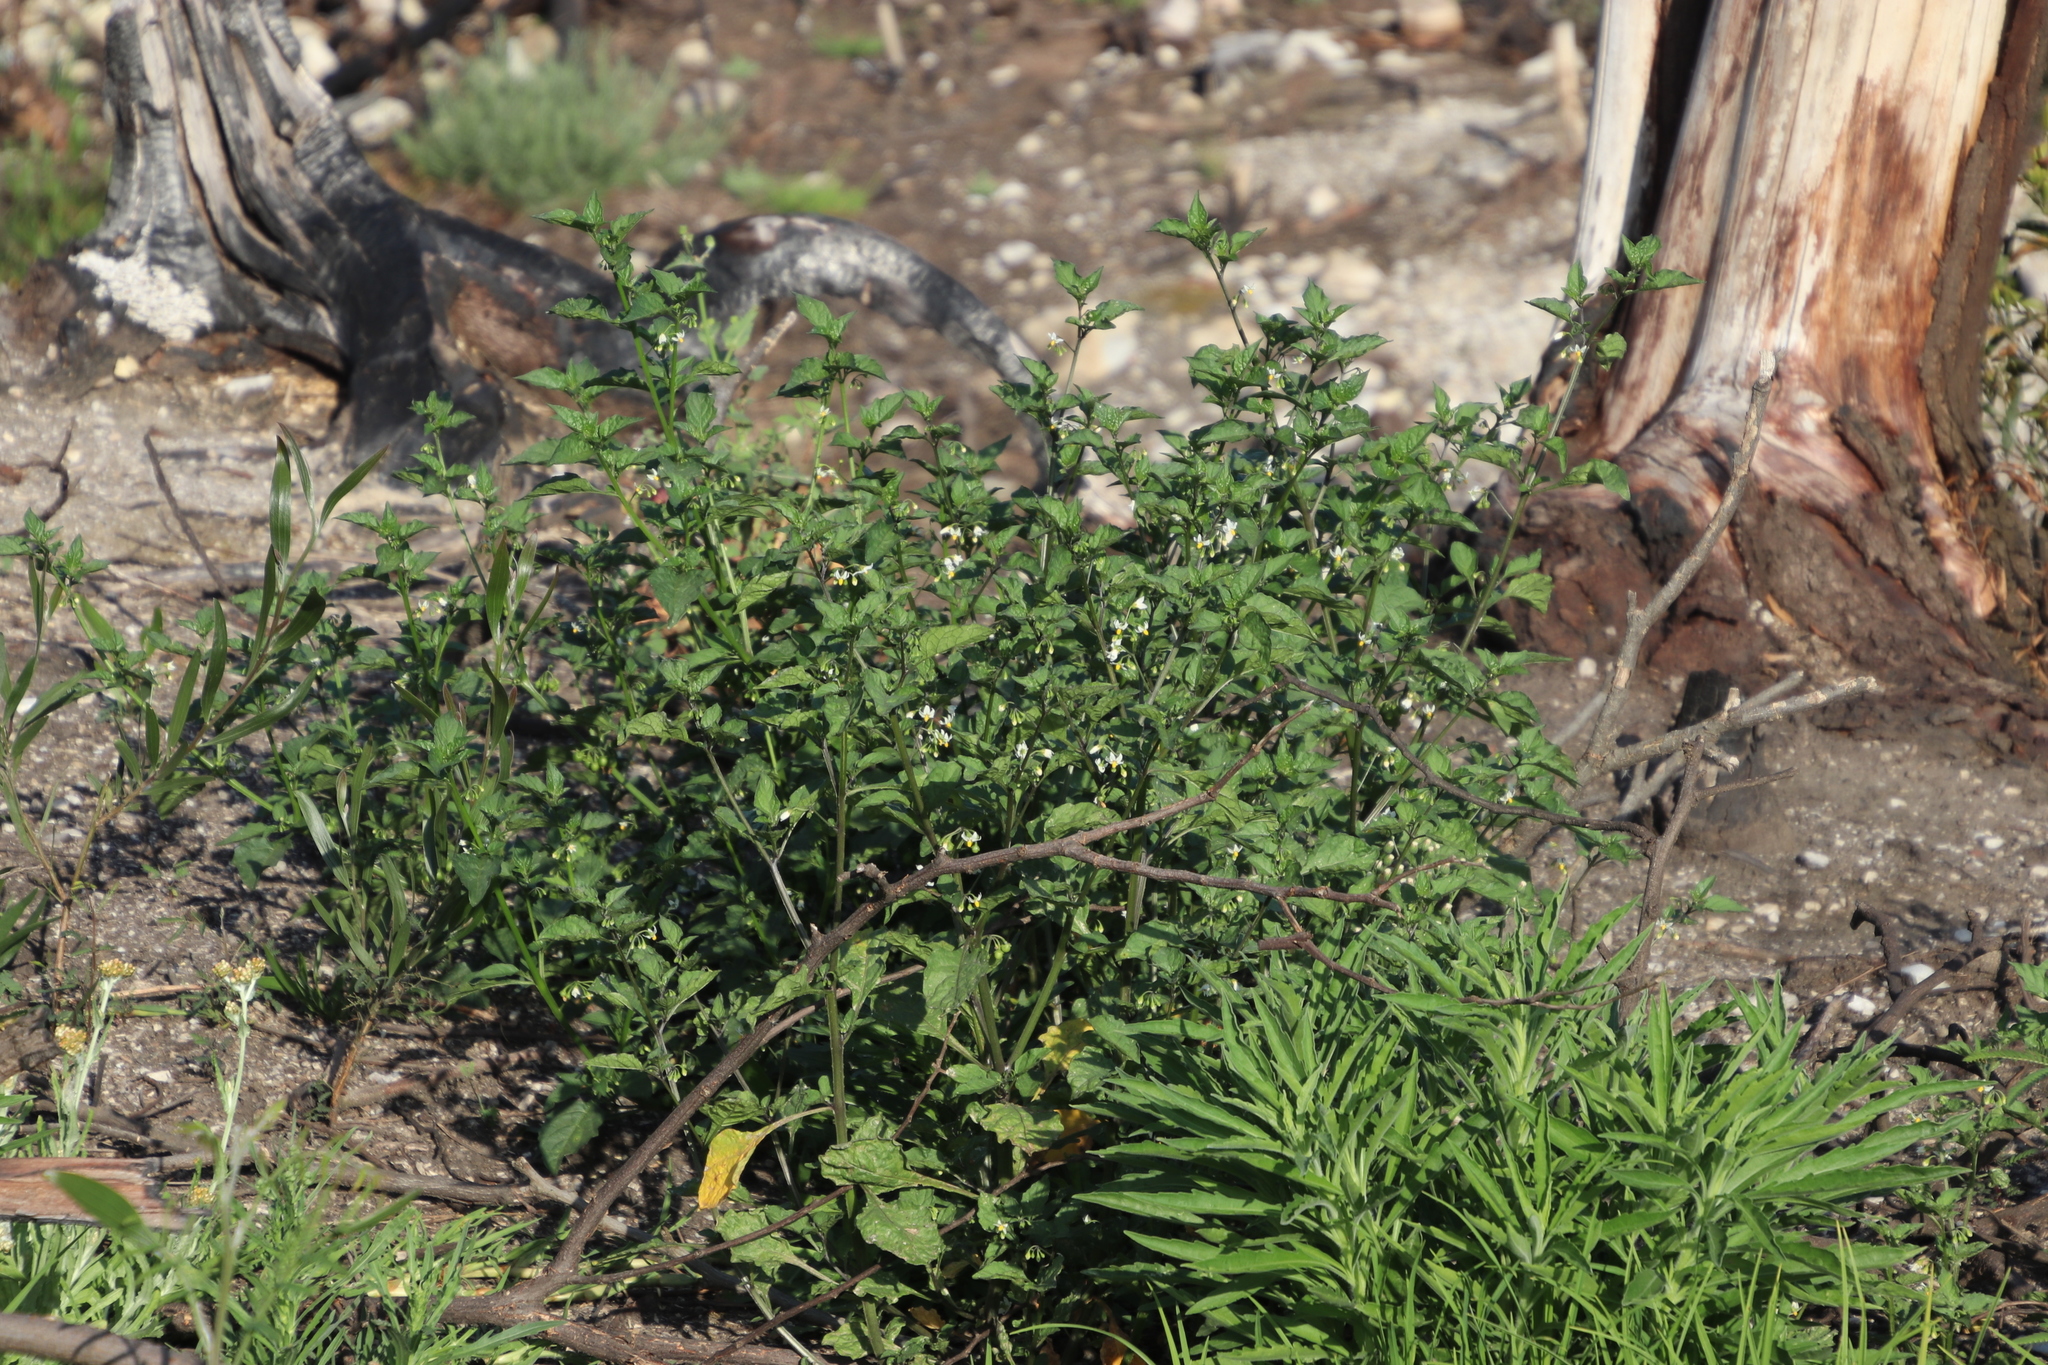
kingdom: Plantae
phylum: Tracheophyta
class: Magnoliopsida
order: Solanales
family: Solanaceae
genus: Solanum
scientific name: Solanum nigrum
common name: Black nightshade
